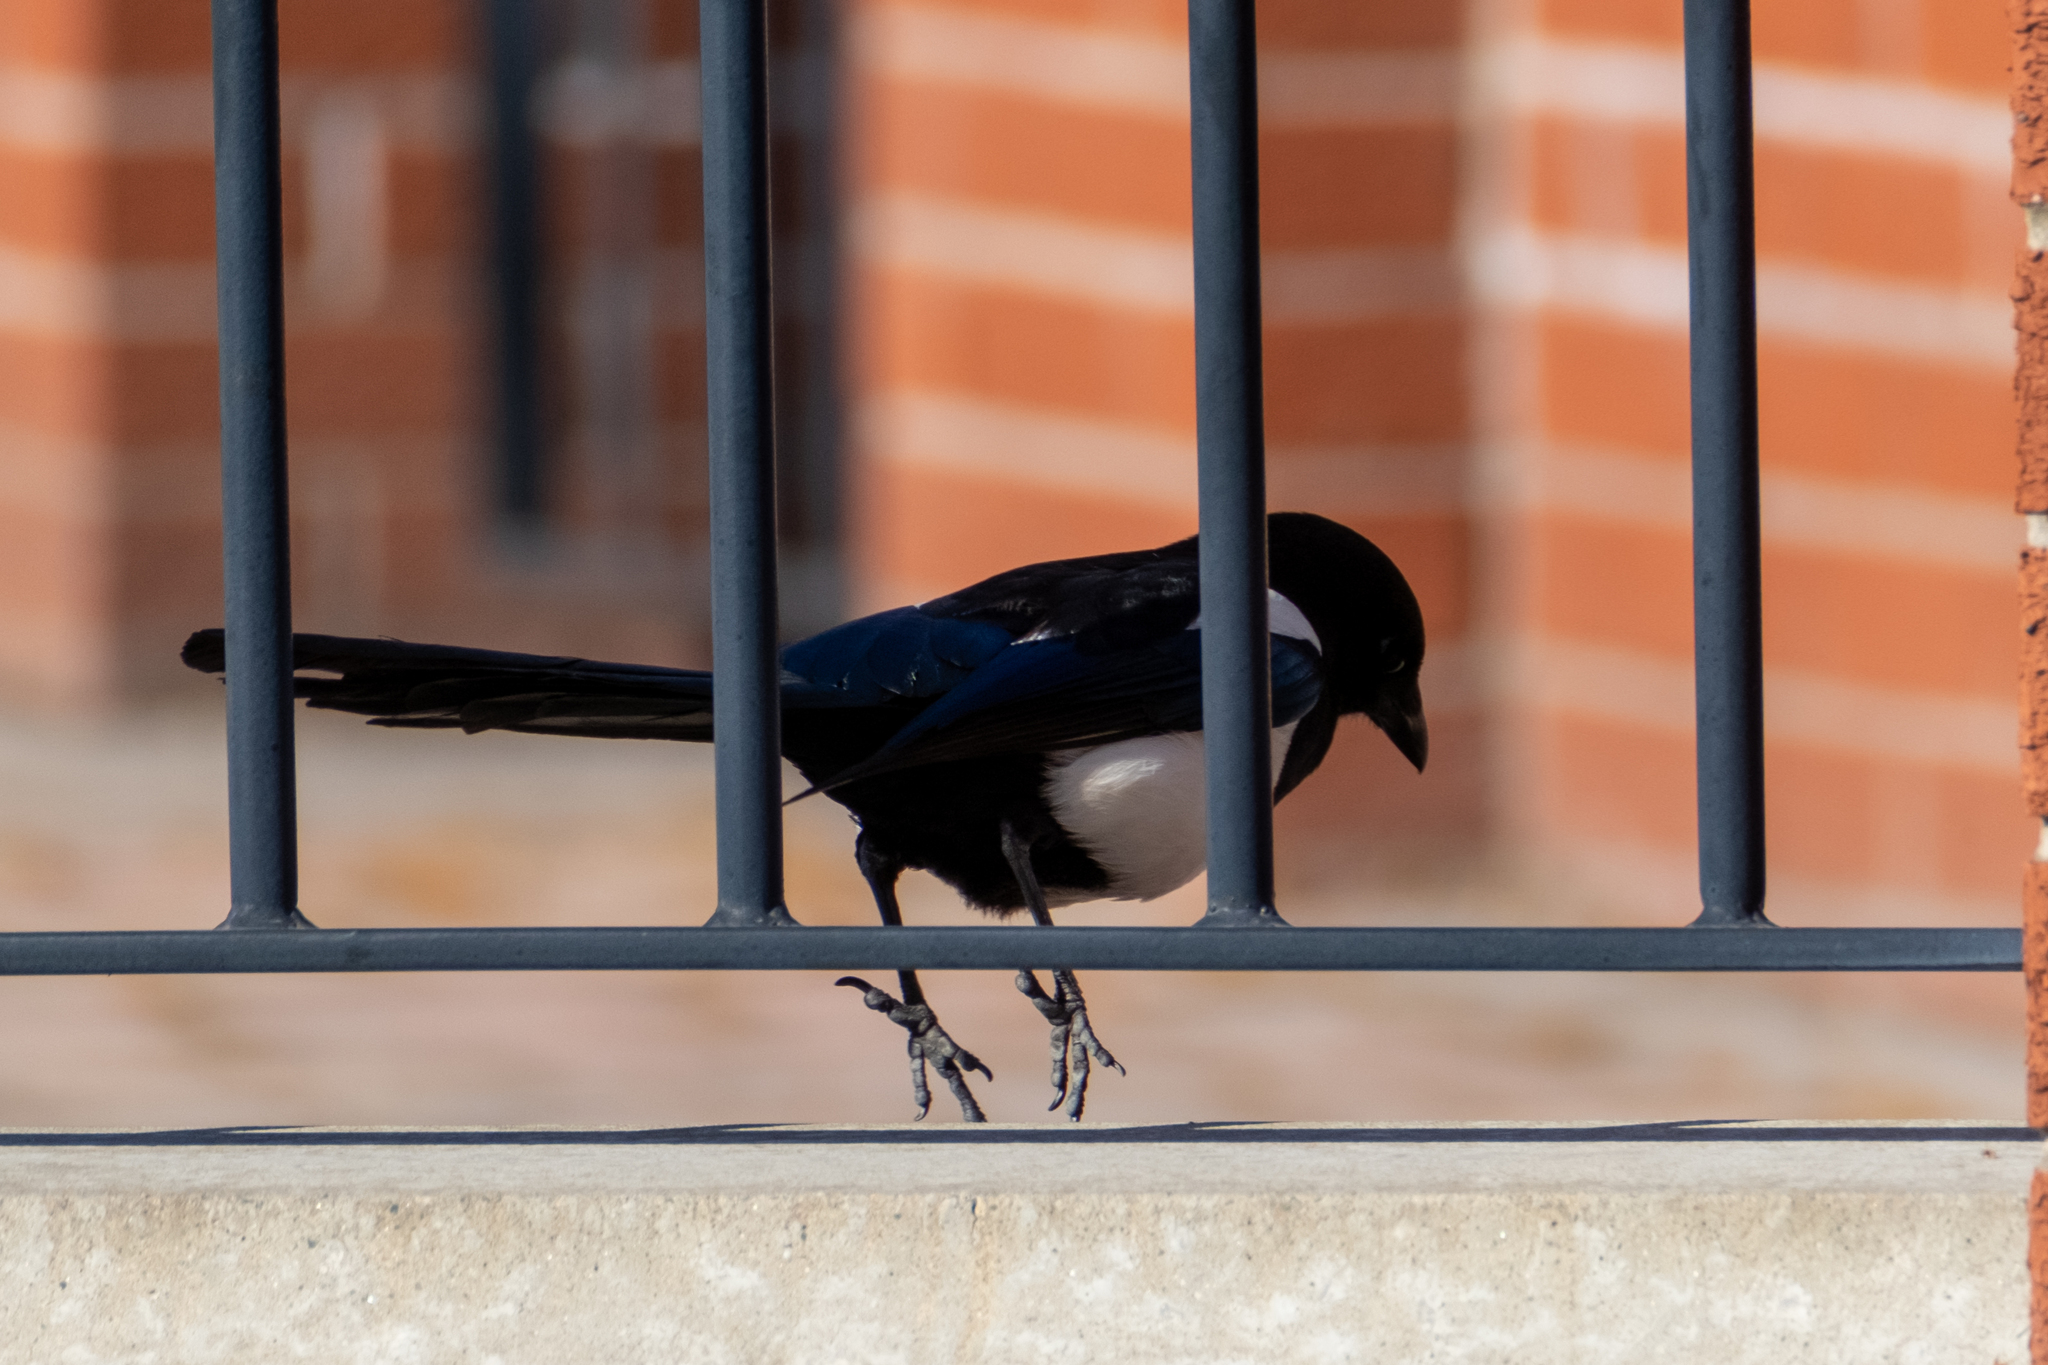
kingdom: Animalia
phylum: Chordata
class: Aves
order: Passeriformes
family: Corvidae
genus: Pica
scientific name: Pica pica
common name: Eurasian magpie
